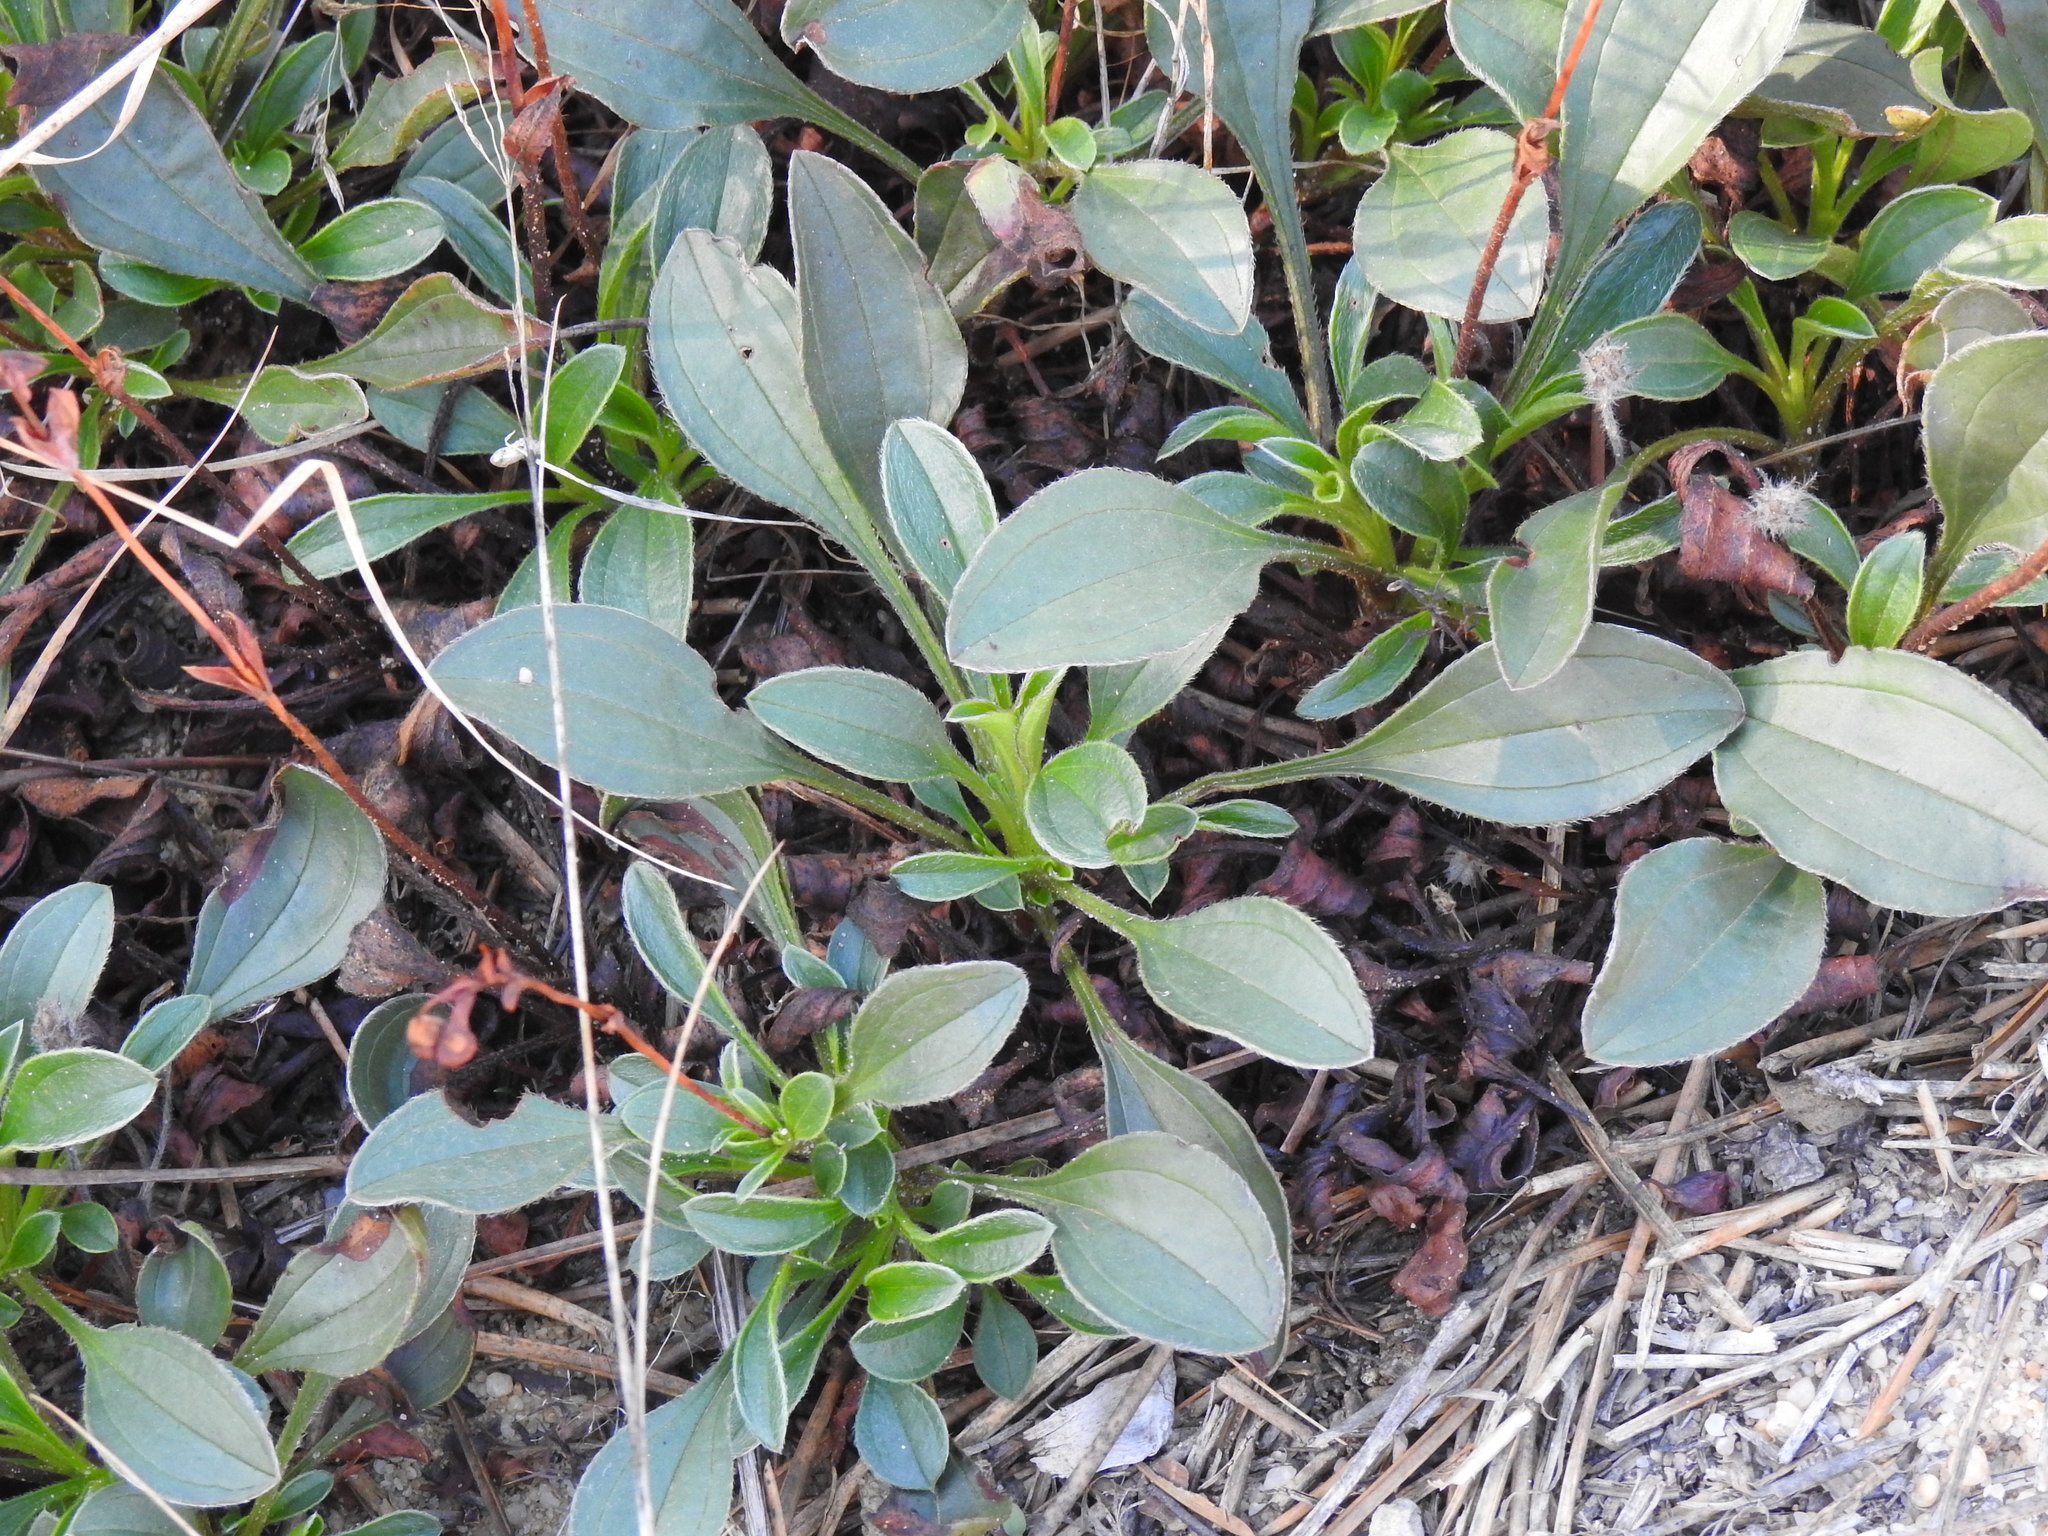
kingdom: Plantae
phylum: Tracheophyta
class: Magnoliopsida
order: Malvales
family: Cistaceae
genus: Tuberaria
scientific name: Tuberaria globulariifolia
